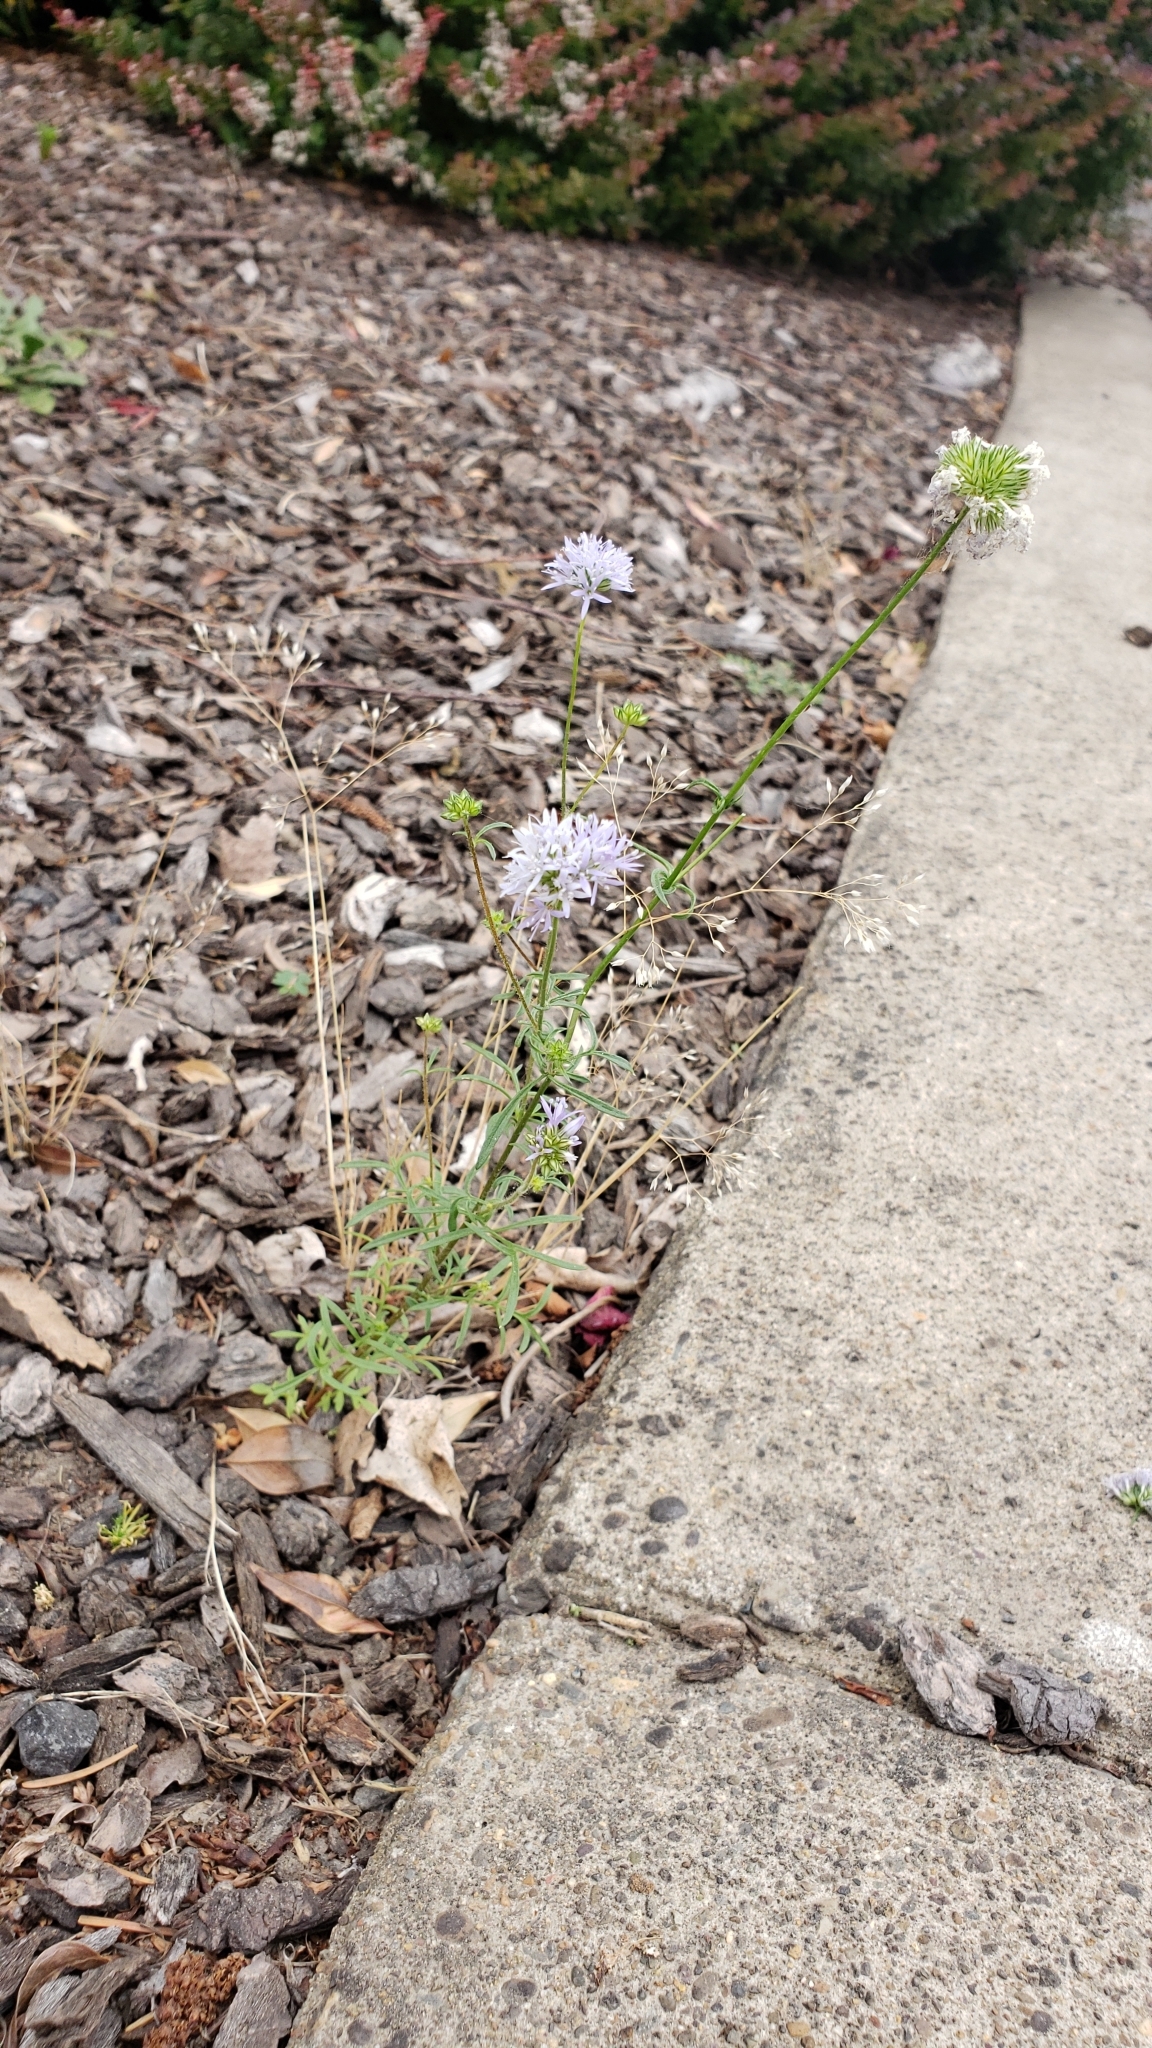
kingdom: Plantae
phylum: Tracheophyta
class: Magnoliopsida
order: Ericales
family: Polemoniaceae
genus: Gilia
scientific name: Gilia capitata
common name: Bluehead gilia
